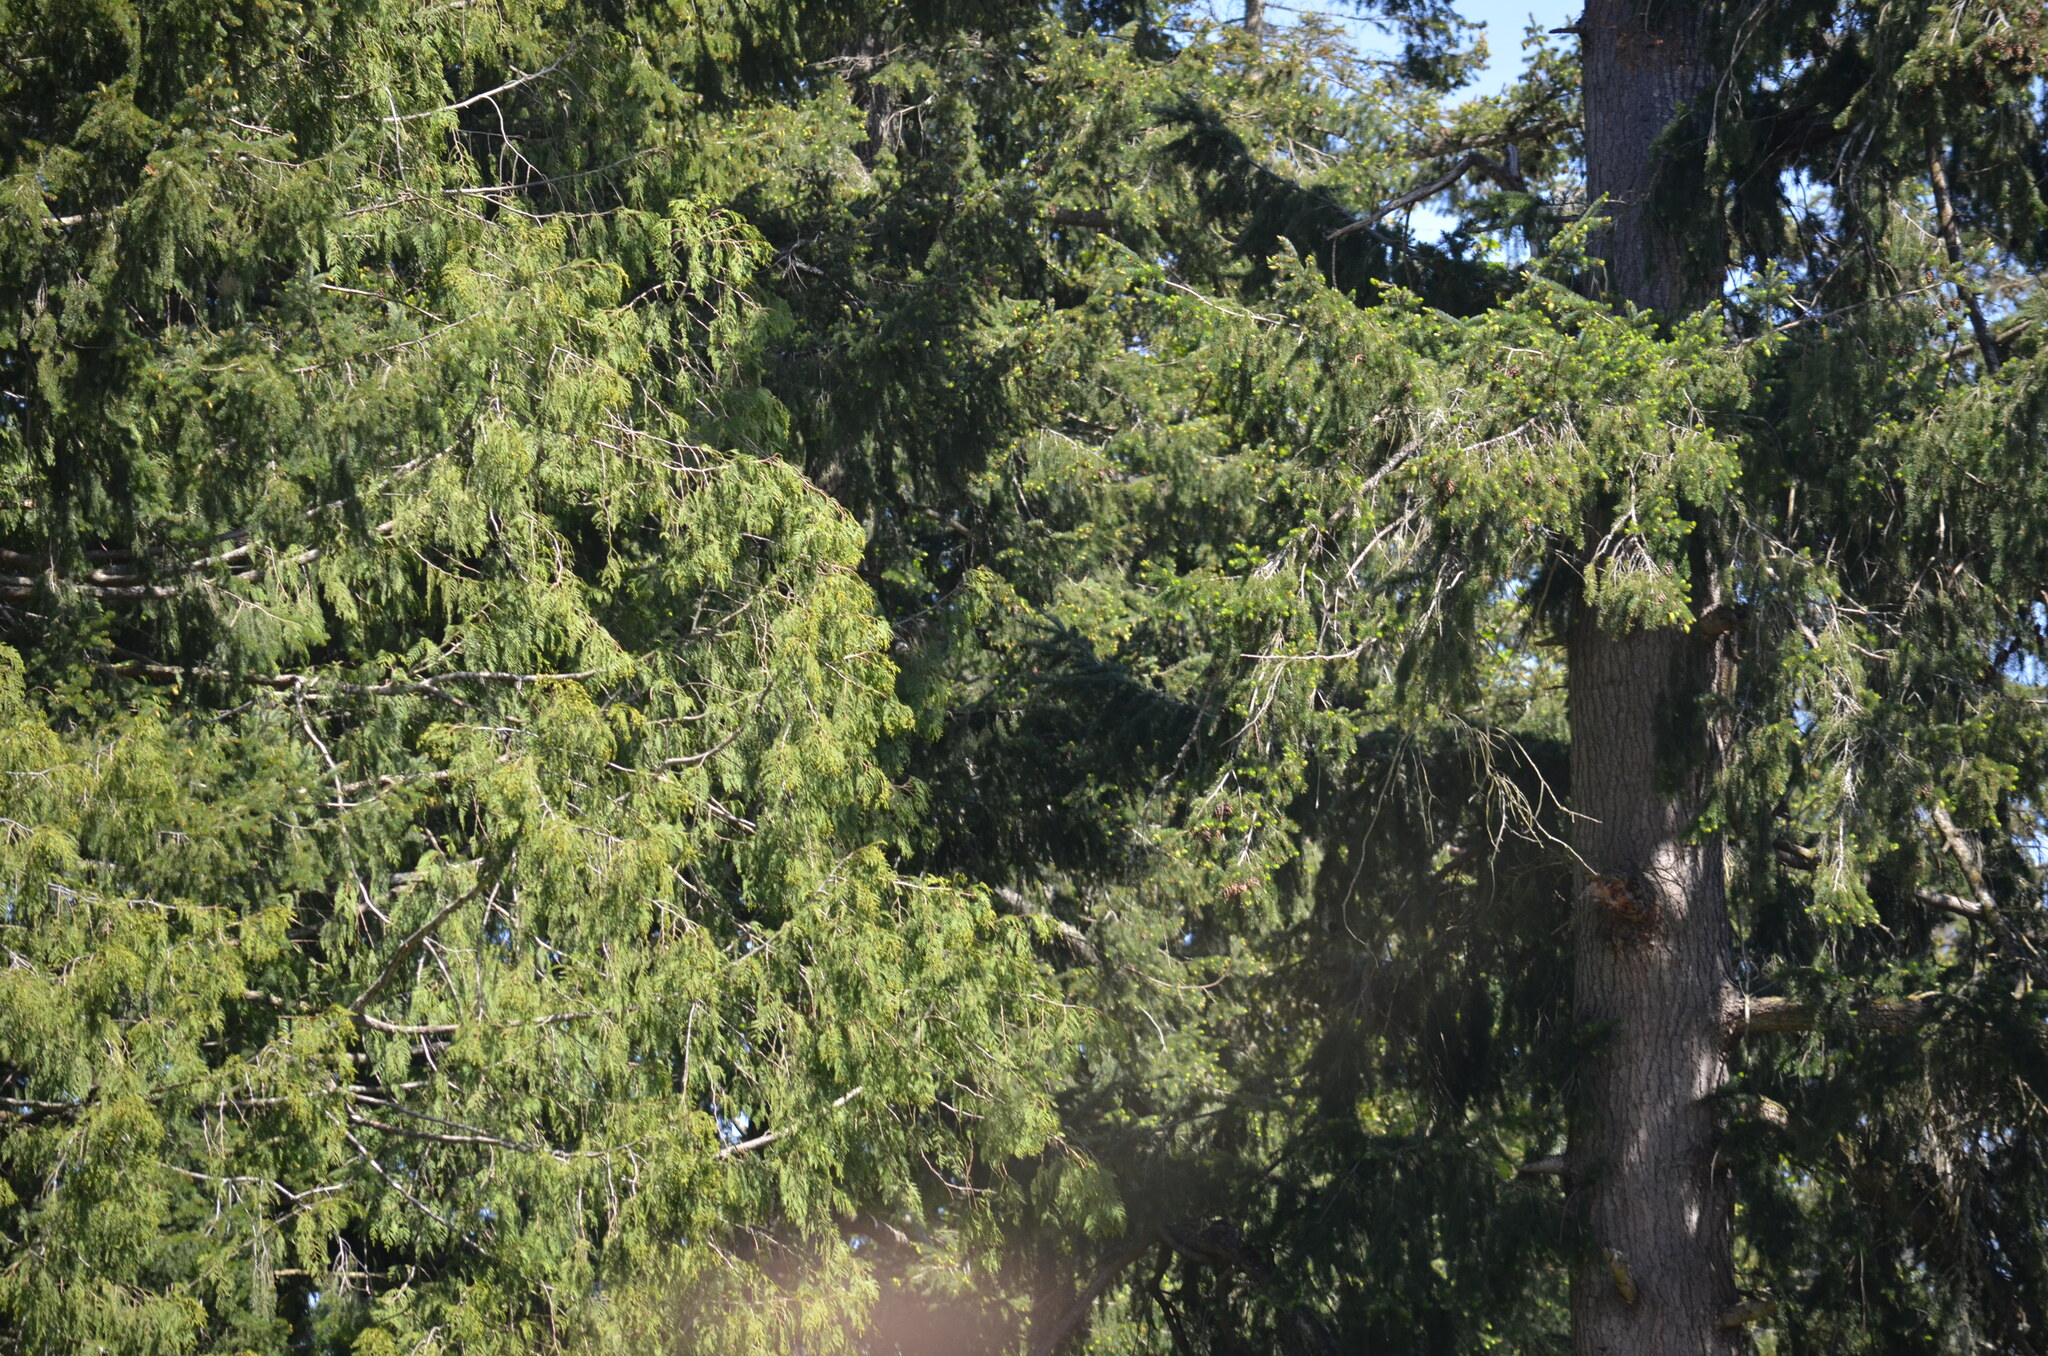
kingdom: Plantae
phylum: Tracheophyta
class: Pinopsida
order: Pinales
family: Pinaceae
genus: Pseudotsuga
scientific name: Pseudotsuga menziesii
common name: Douglas fir
